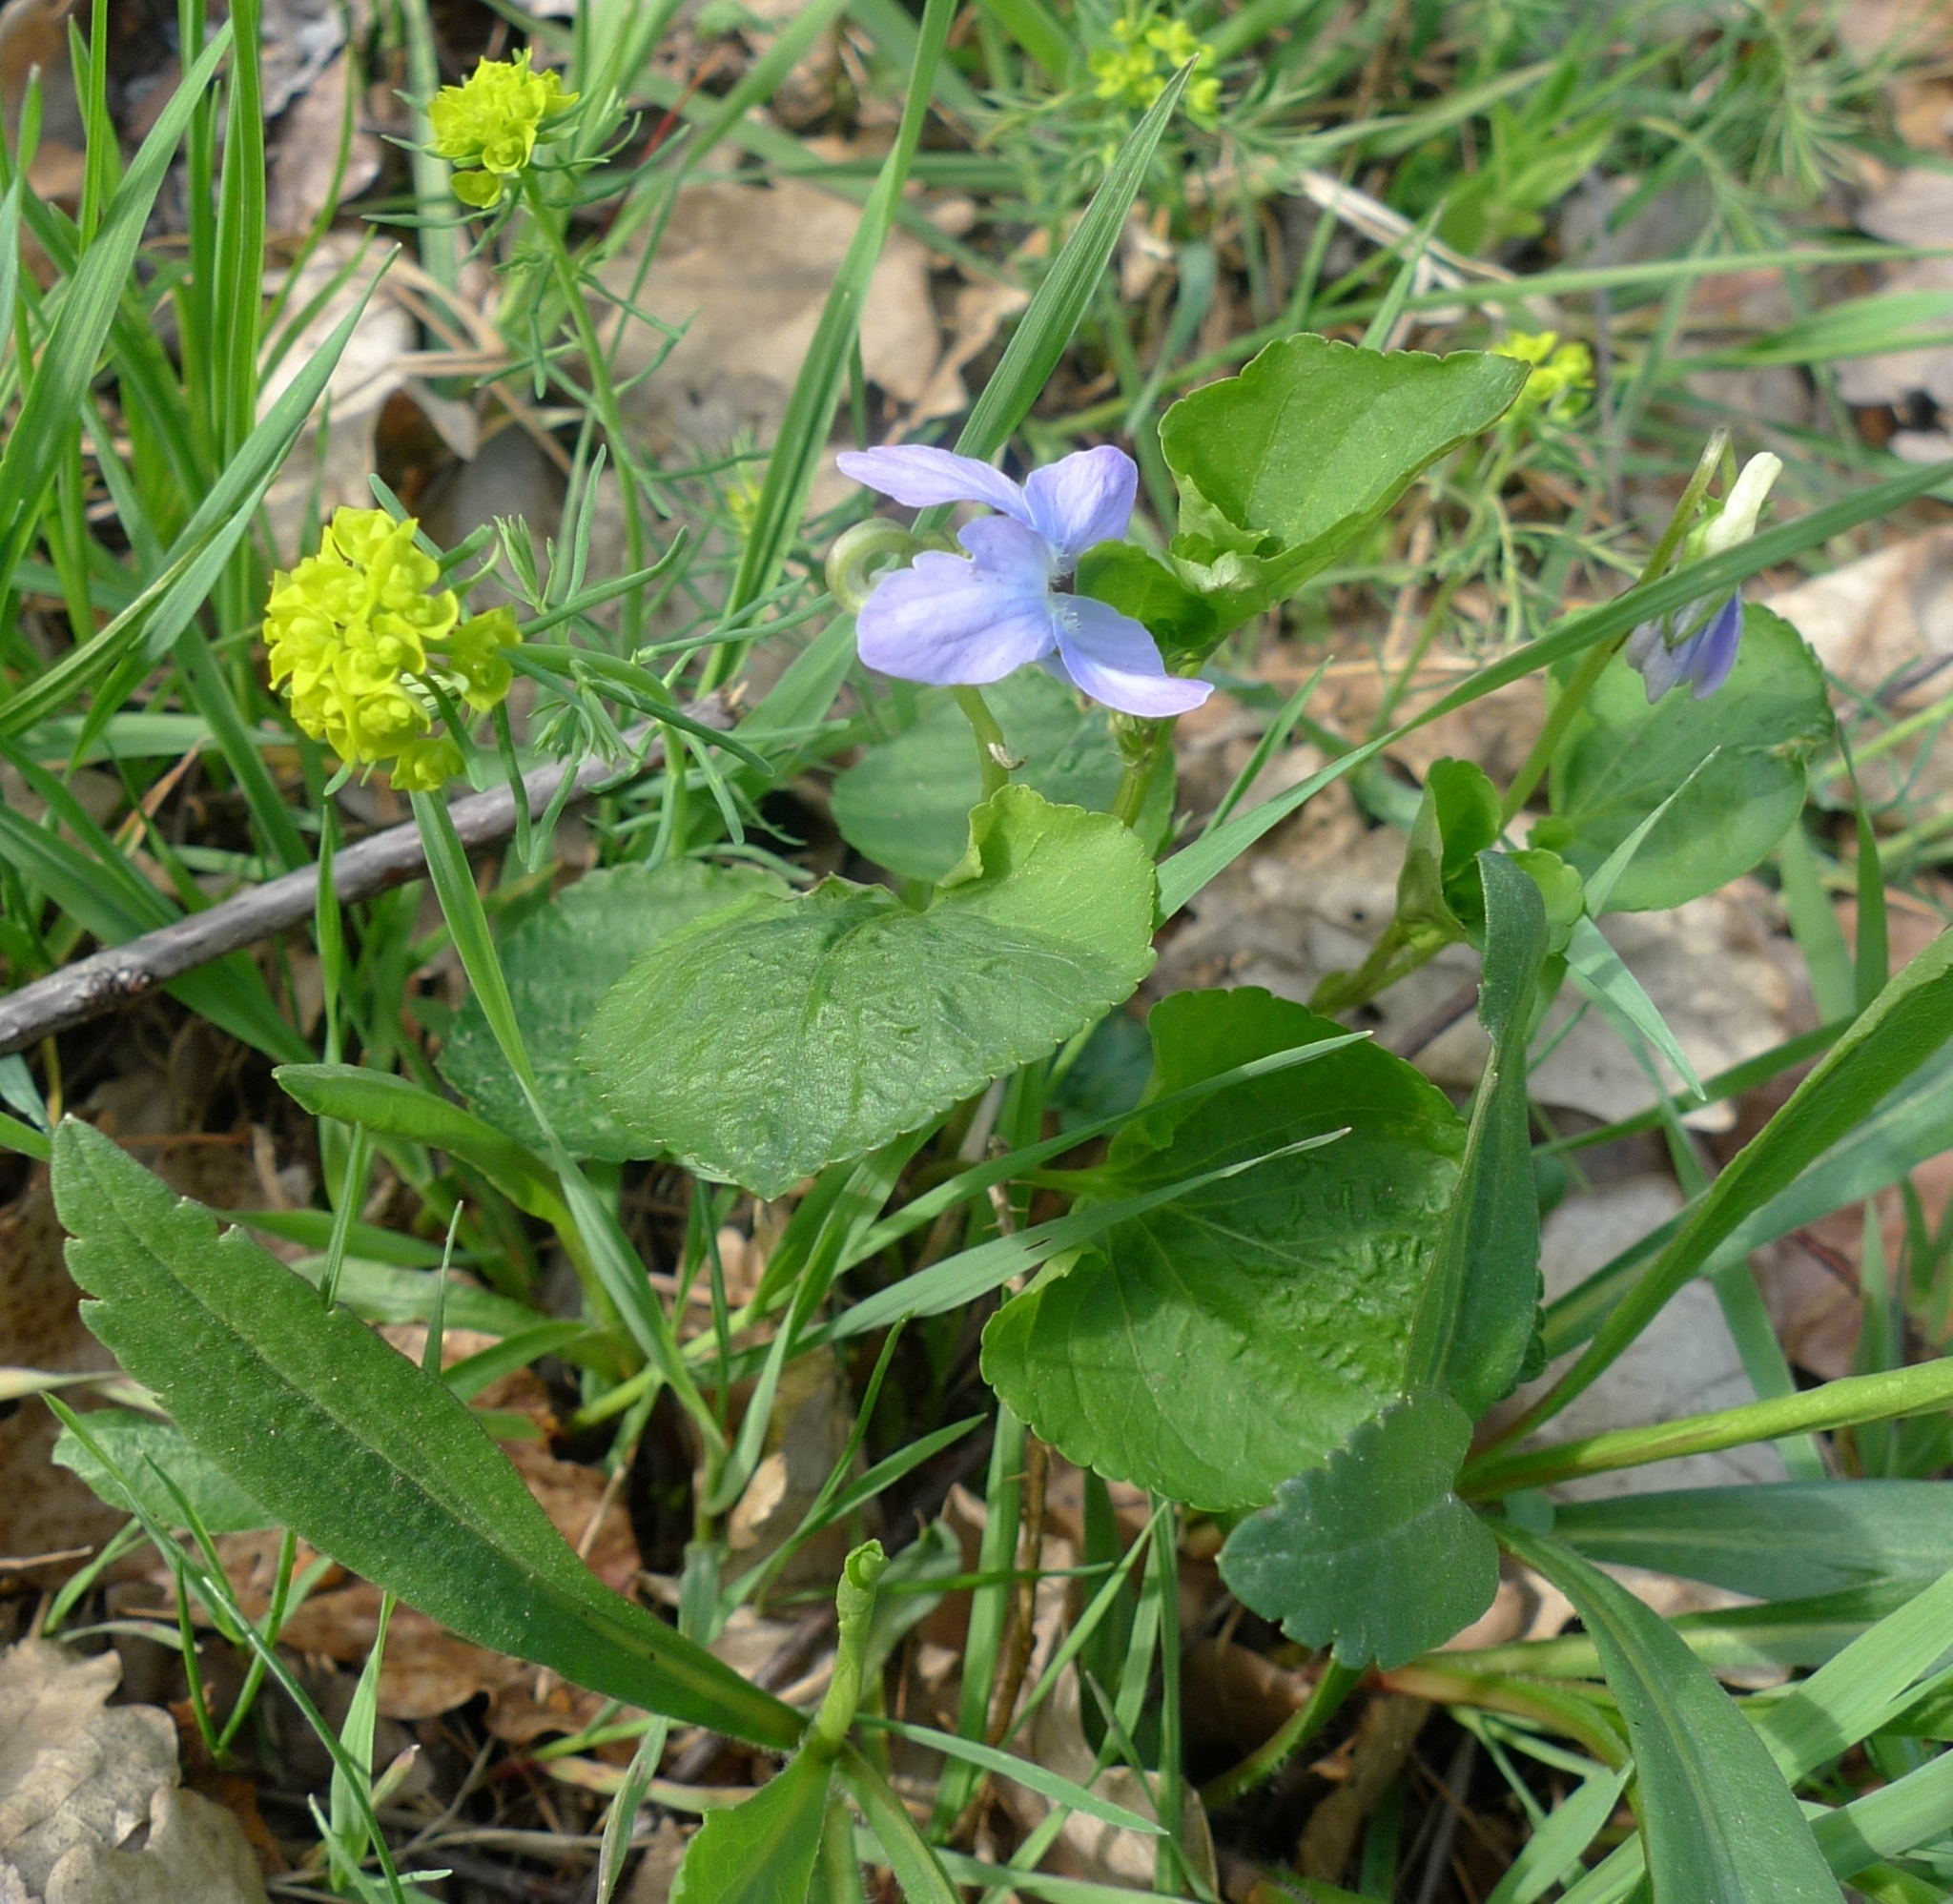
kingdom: Plantae
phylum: Tracheophyta
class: Magnoliopsida
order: Malpighiales
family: Violaceae
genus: Viola
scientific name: Viola riviniana
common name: Common dog-violet
